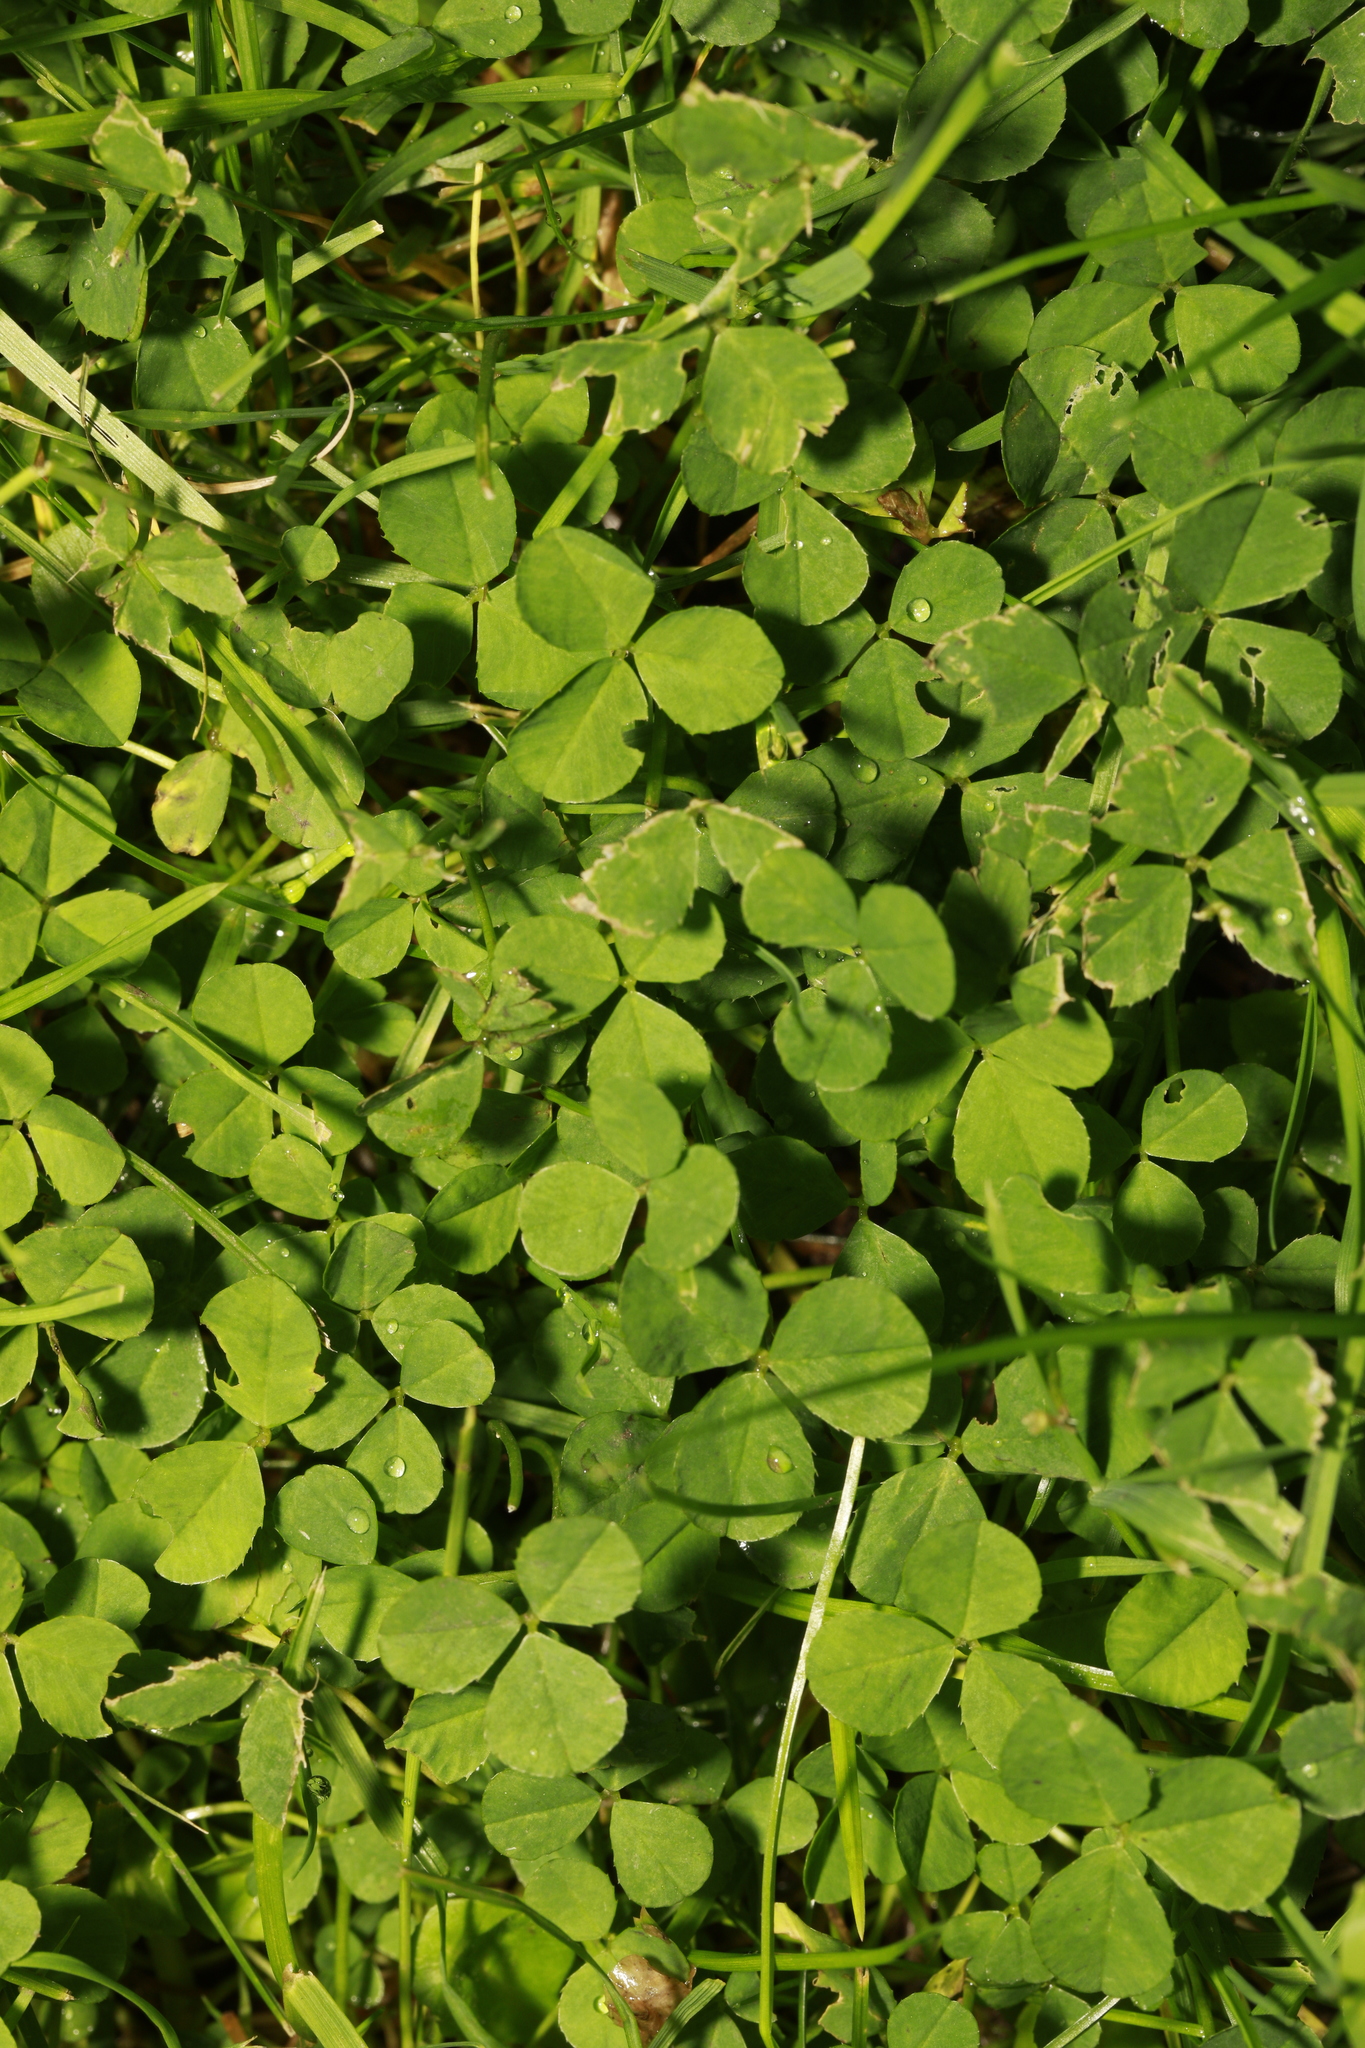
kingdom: Plantae
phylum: Tracheophyta
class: Magnoliopsida
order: Fabales
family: Fabaceae
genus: Trifolium
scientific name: Trifolium repens
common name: White clover
